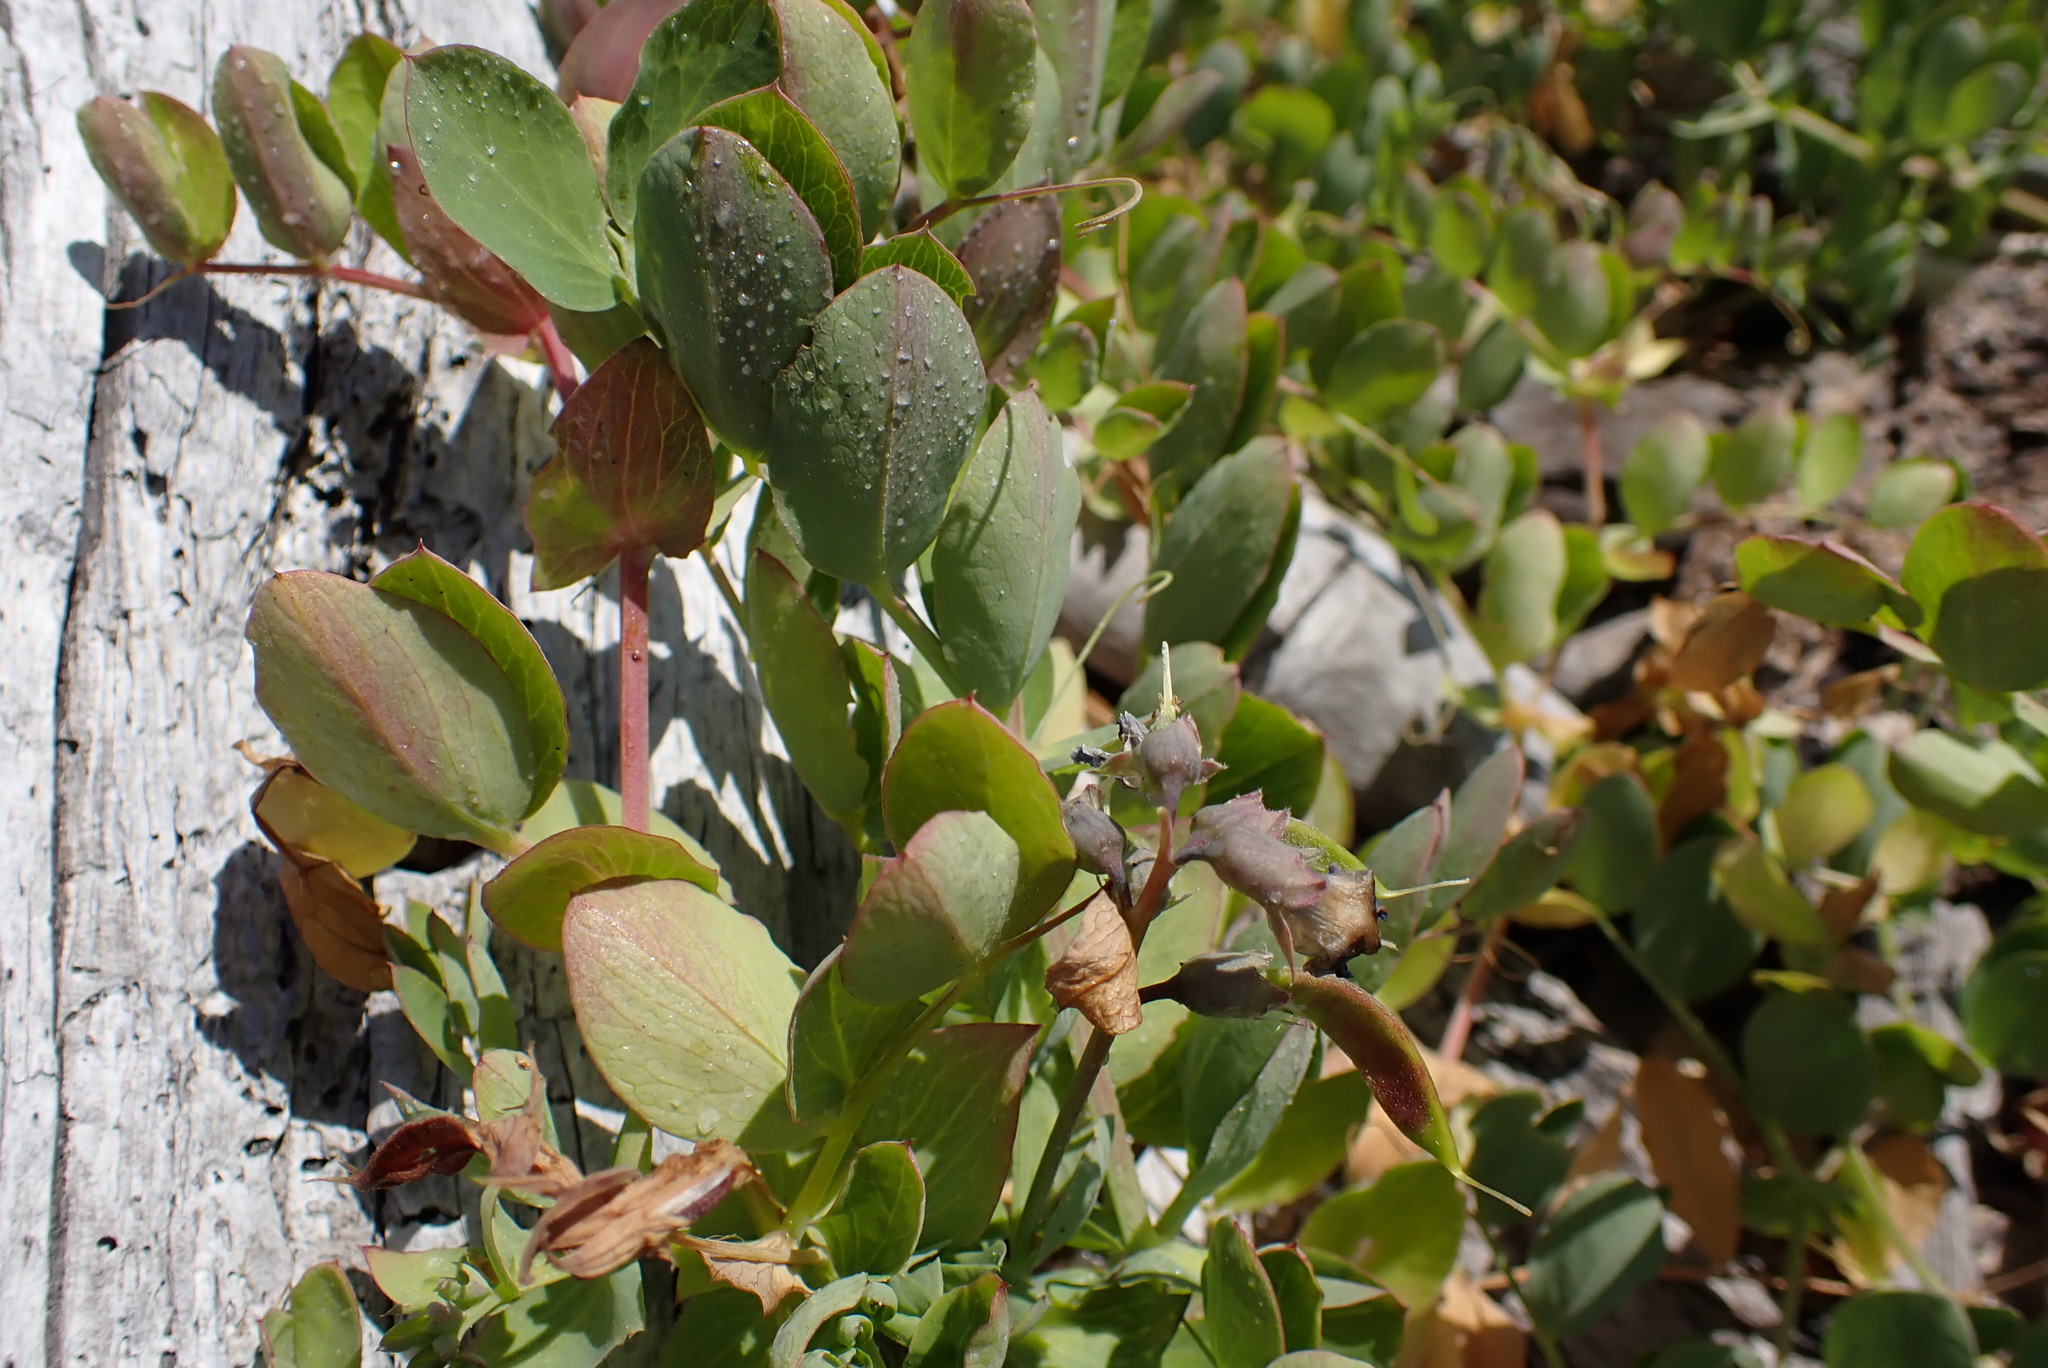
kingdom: Plantae
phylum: Tracheophyta
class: Magnoliopsida
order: Fabales
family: Fabaceae
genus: Lathyrus
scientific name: Lathyrus japonicus
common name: Sea pea
